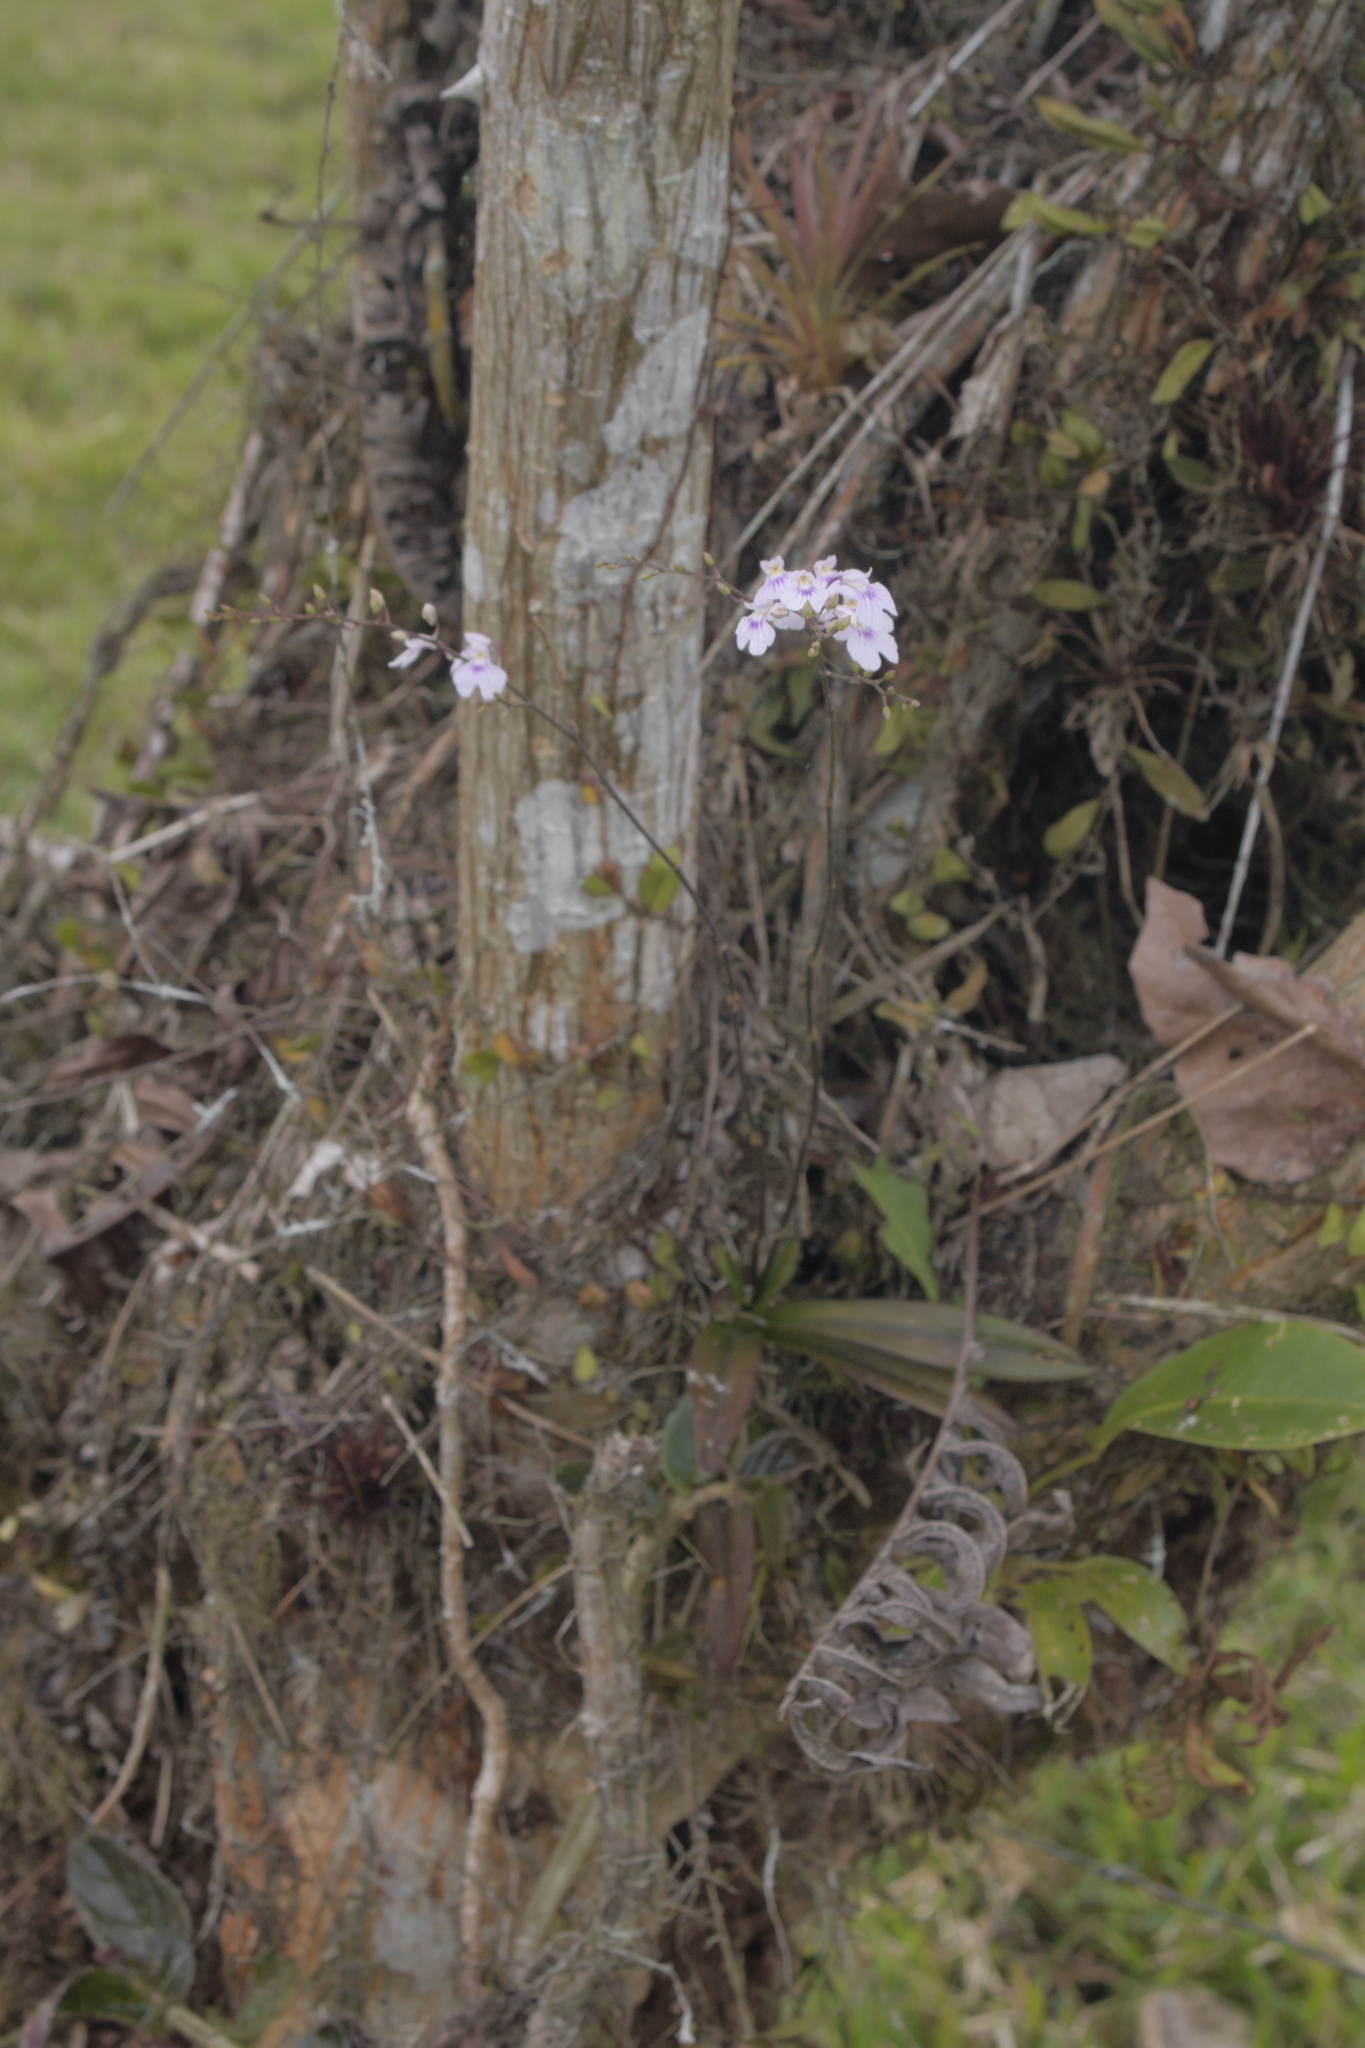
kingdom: Plantae
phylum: Tracheophyta
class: Liliopsida
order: Asparagales
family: Orchidaceae
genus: Ionopsis
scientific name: Ionopsis utricularioides
